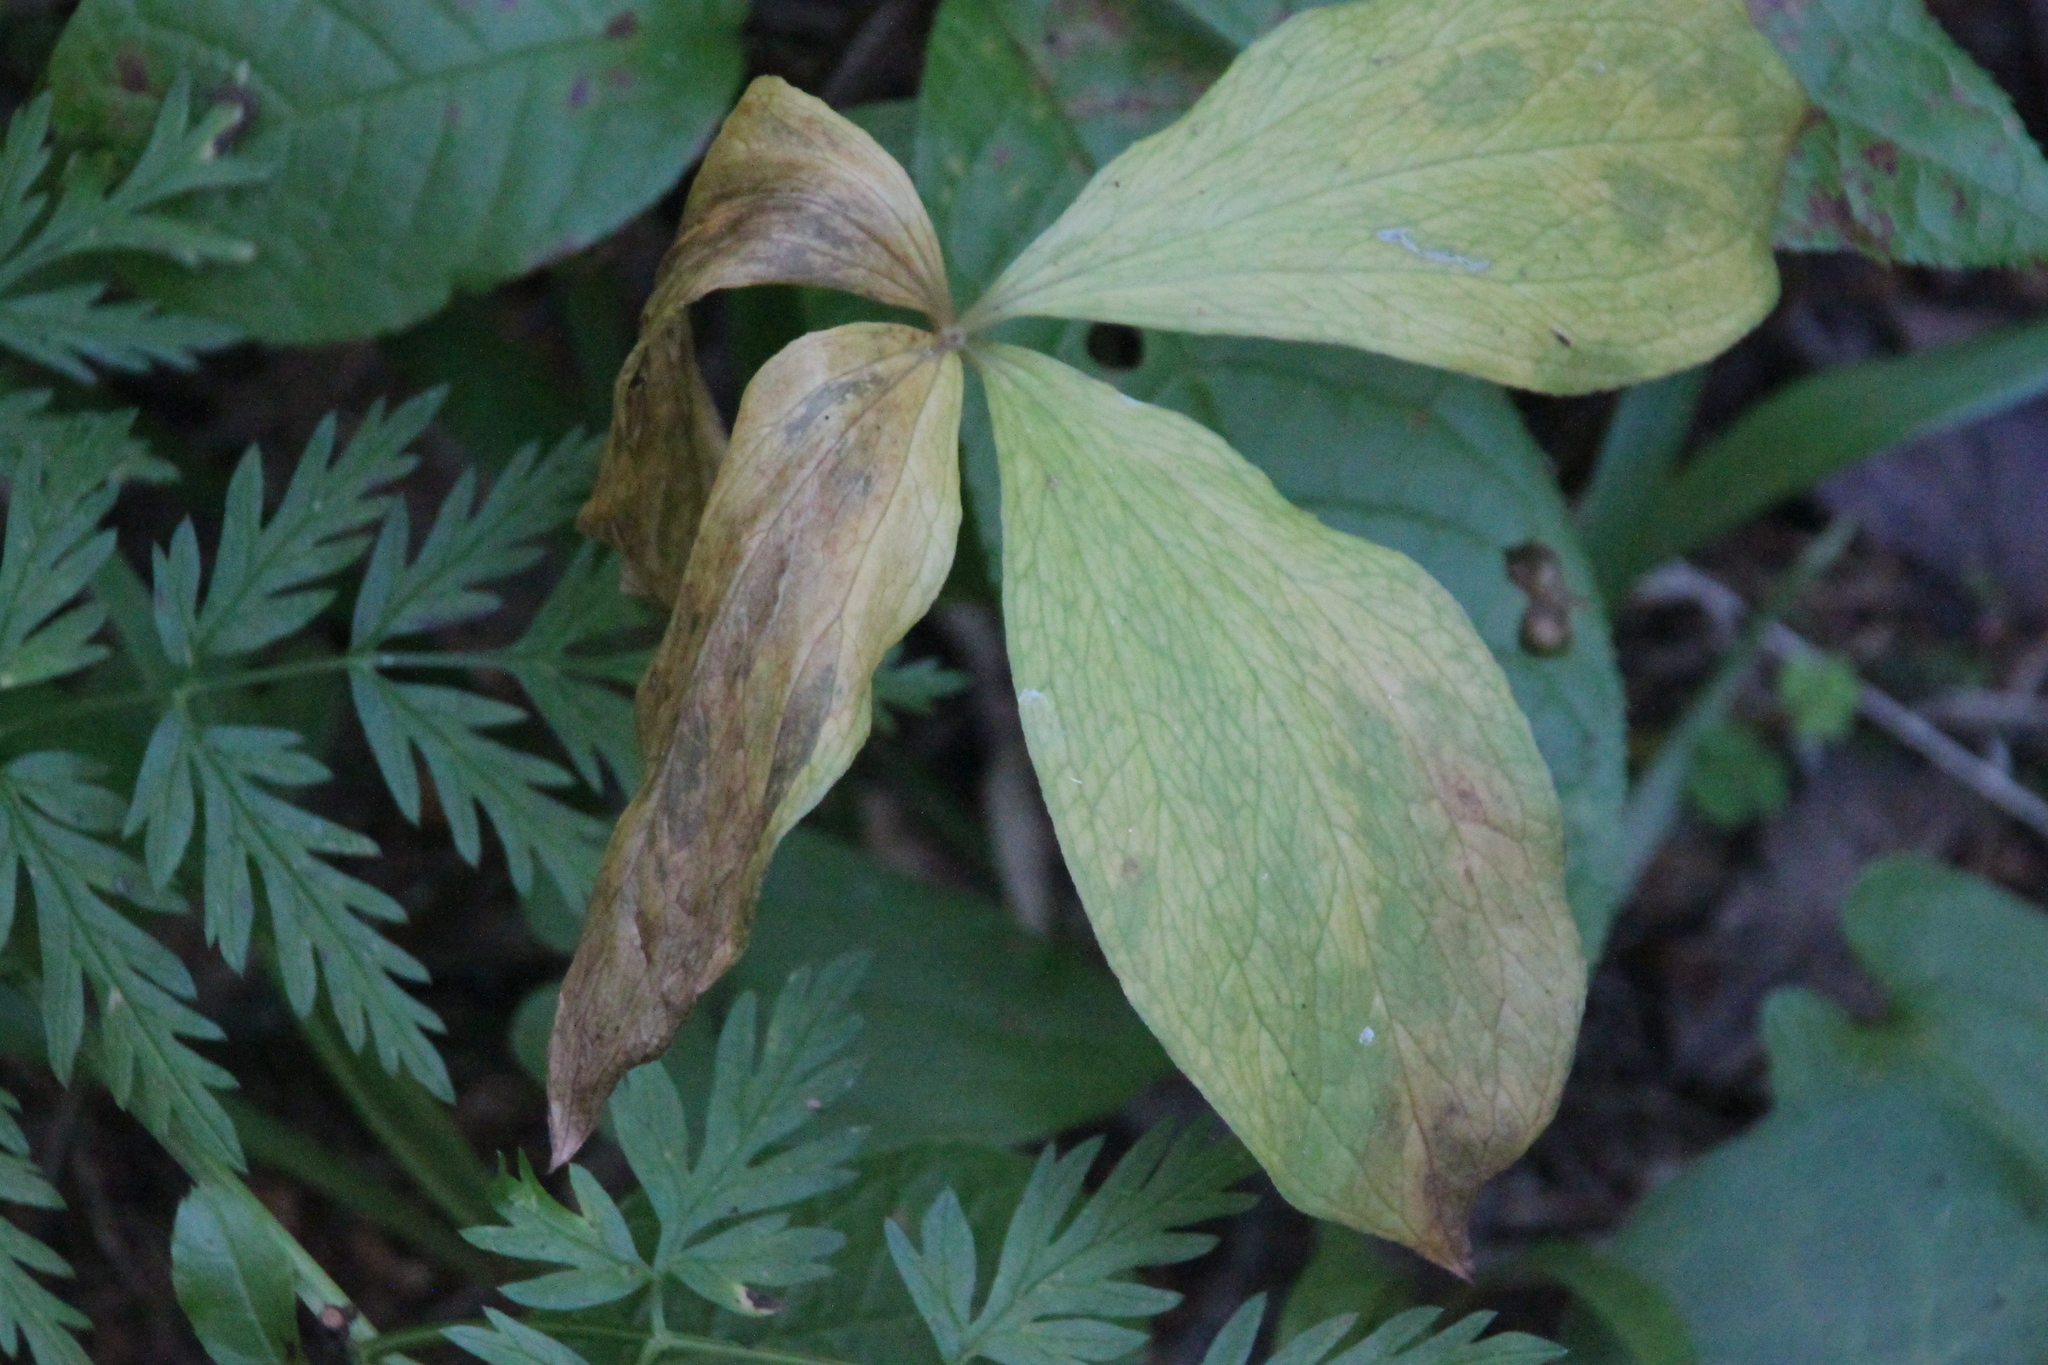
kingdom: Plantae
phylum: Tracheophyta
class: Liliopsida
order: Liliales
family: Melanthiaceae
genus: Paris
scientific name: Paris quadrifolia
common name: Herb-paris
